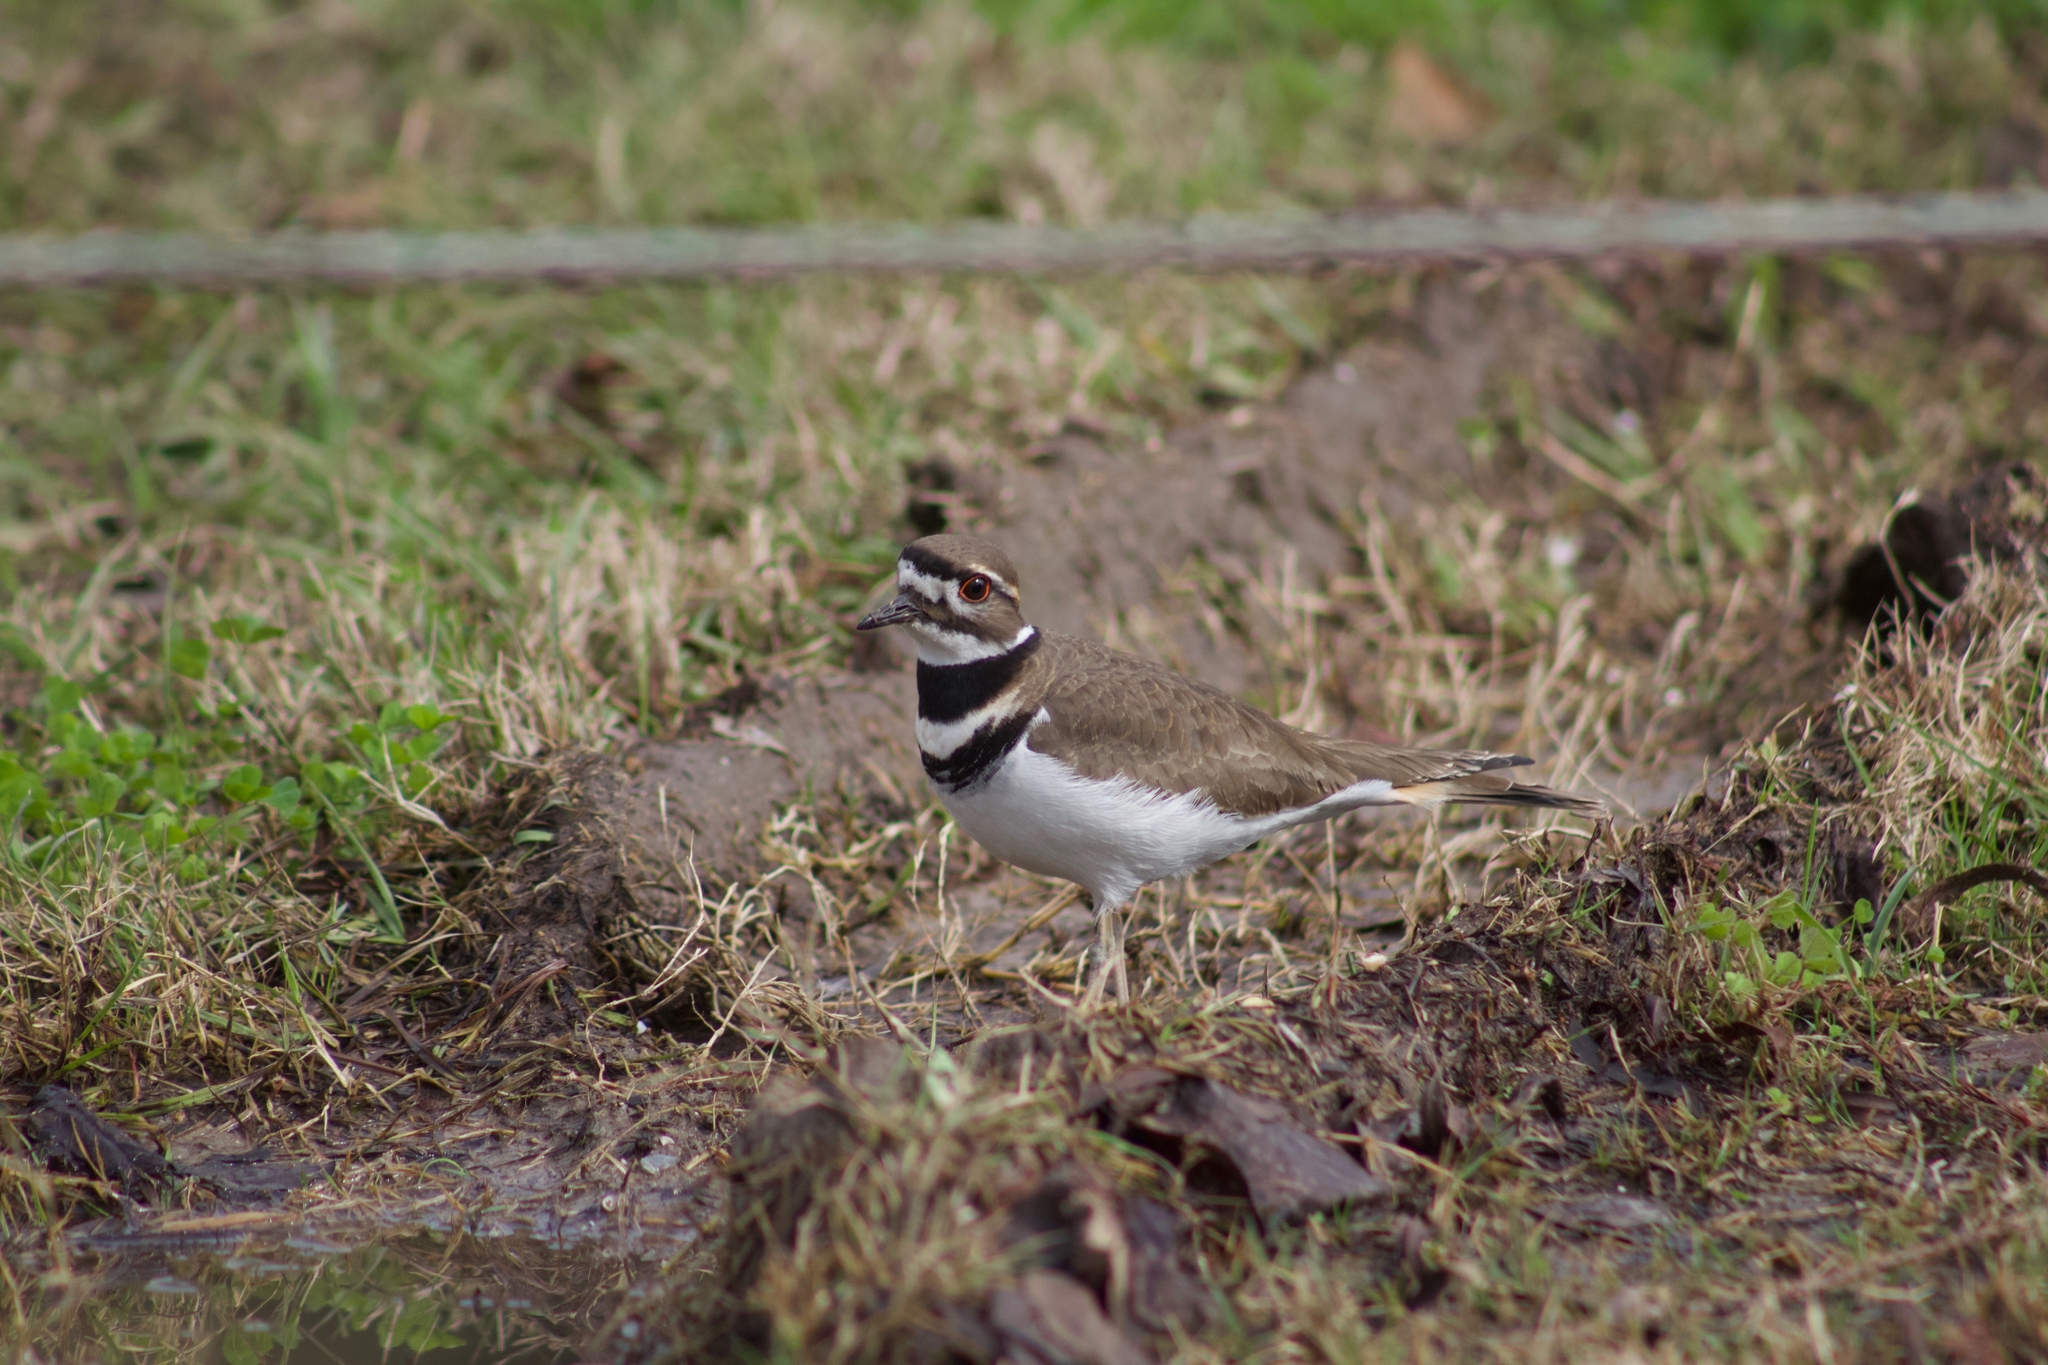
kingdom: Animalia
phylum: Chordata
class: Aves
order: Charadriiformes
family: Charadriidae
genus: Charadrius
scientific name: Charadrius vociferus
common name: Killdeer
